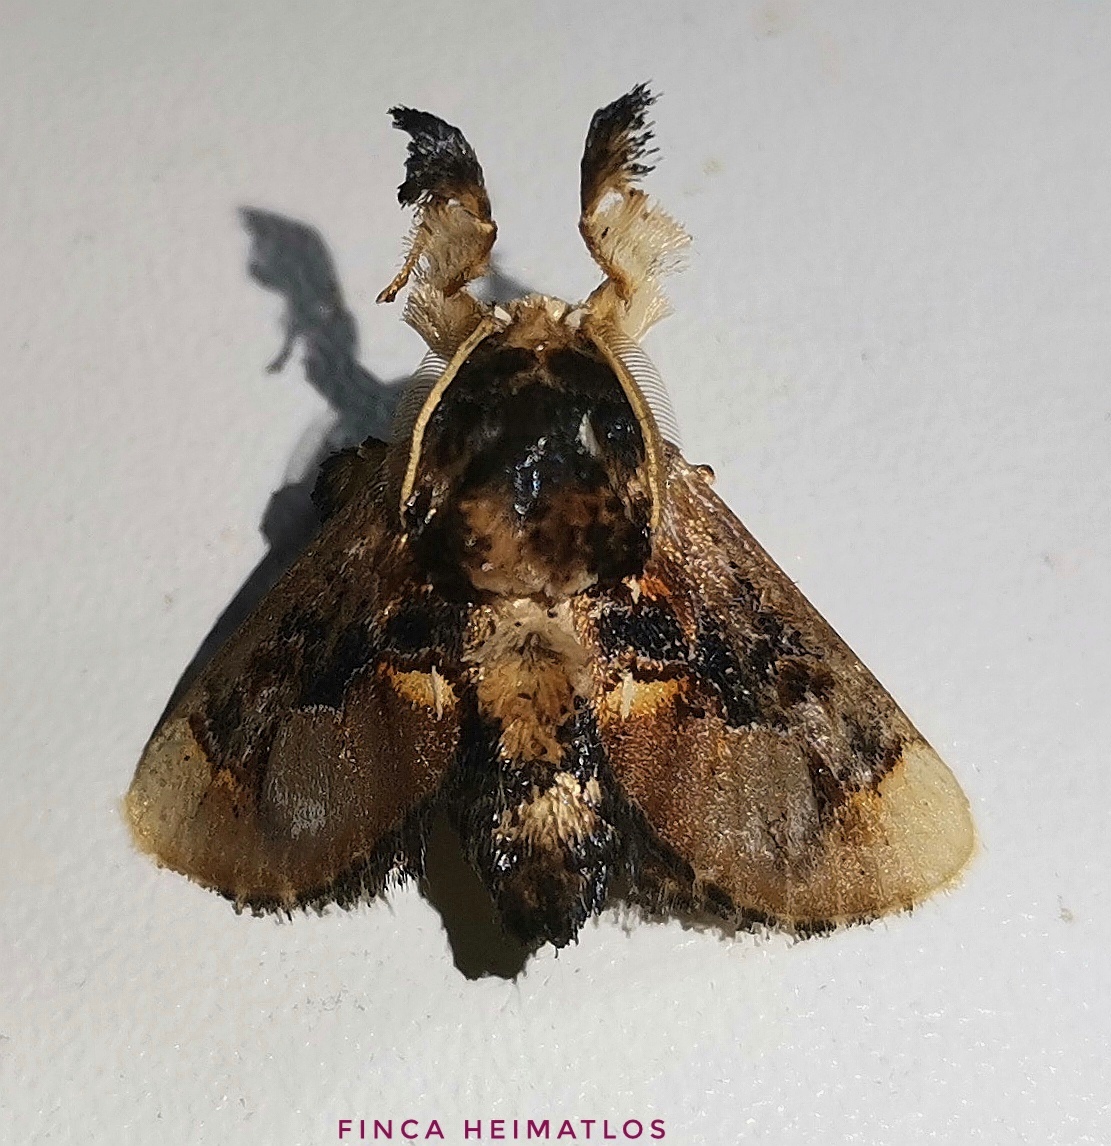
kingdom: Animalia
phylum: Arthropoda
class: Insecta
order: Lepidoptera
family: Limacodidae
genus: Epiperola
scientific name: Epiperola perornata
